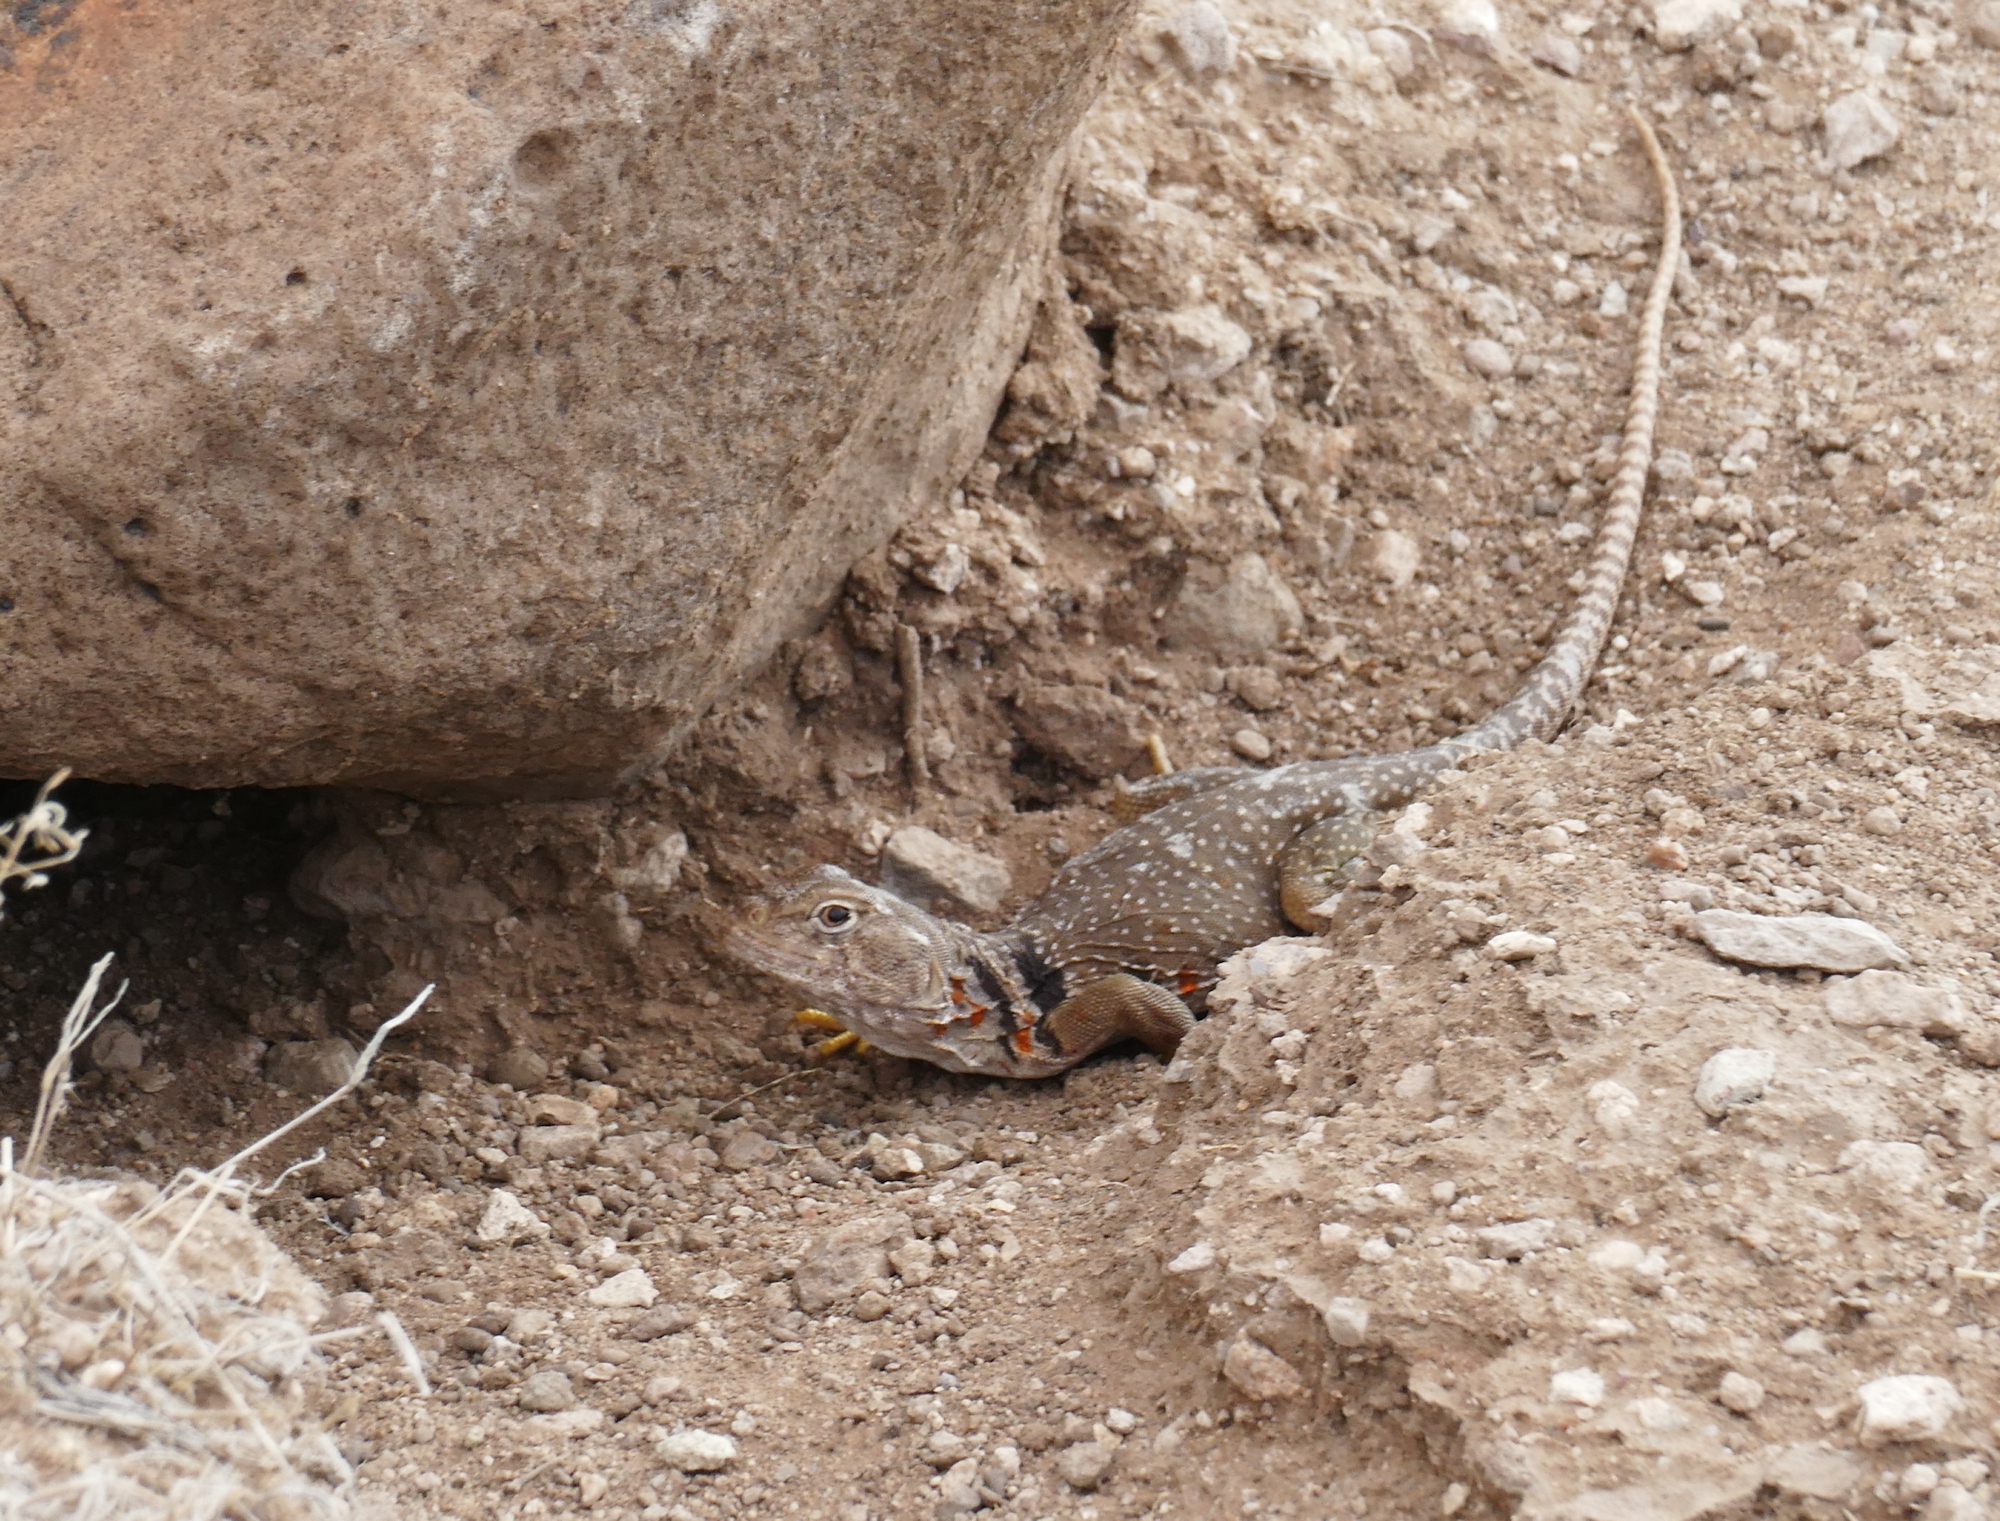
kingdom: Animalia
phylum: Chordata
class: Squamata
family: Crotaphytidae
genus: Crotaphytus
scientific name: Crotaphytus collaris
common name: Collared lizard
